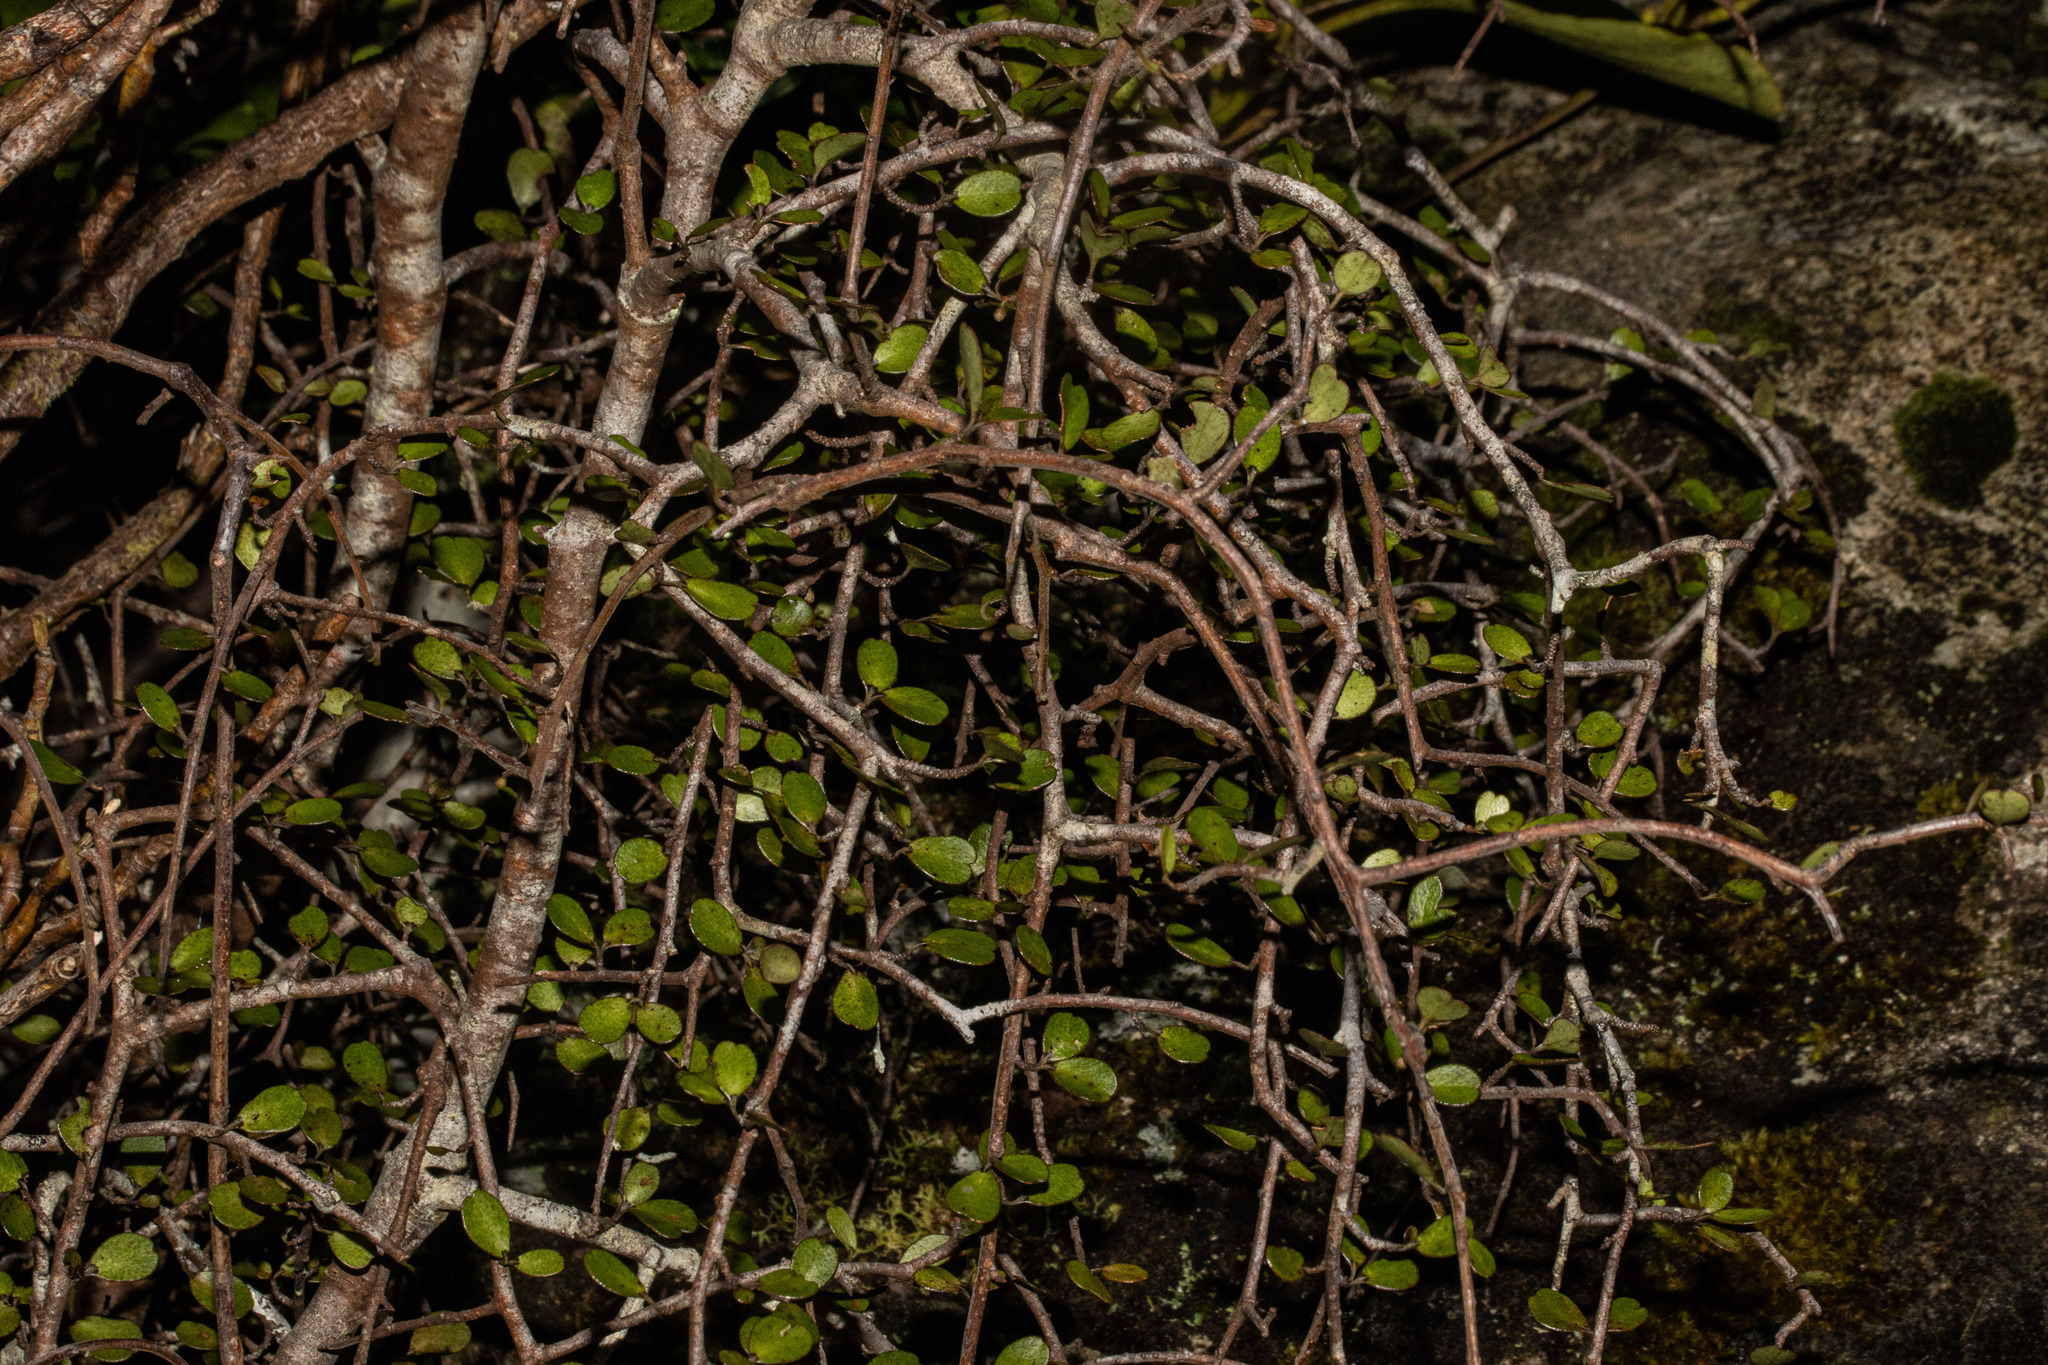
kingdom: Plantae
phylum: Tracheophyta
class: Magnoliopsida
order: Ericales
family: Primulaceae
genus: Myrsine
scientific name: Myrsine divaricata
